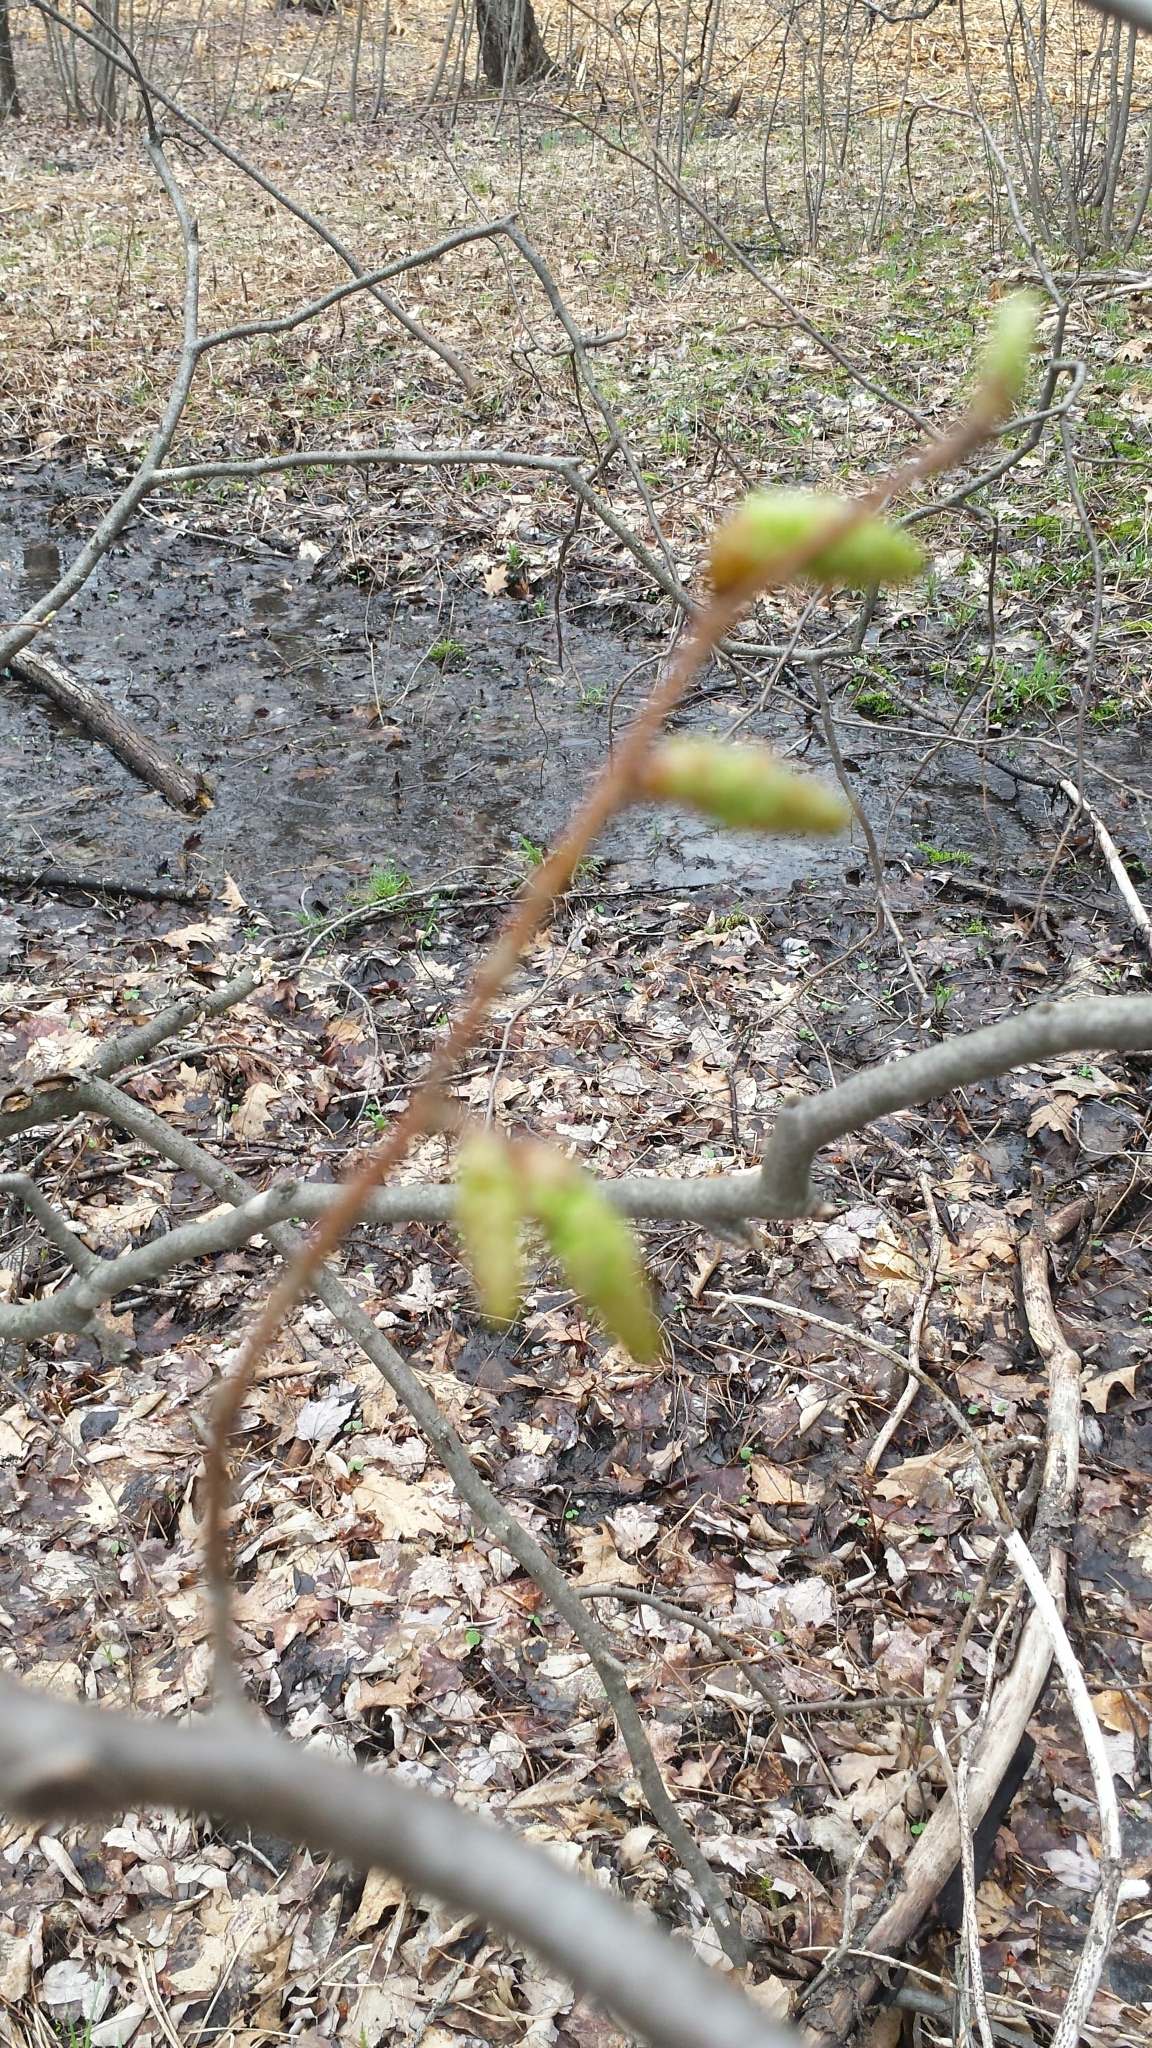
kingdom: Plantae
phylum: Tracheophyta
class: Magnoliopsida
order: Fagales
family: Betulaceae
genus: Carpinus
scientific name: Carpinus caroliniana
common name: American hornbeam
